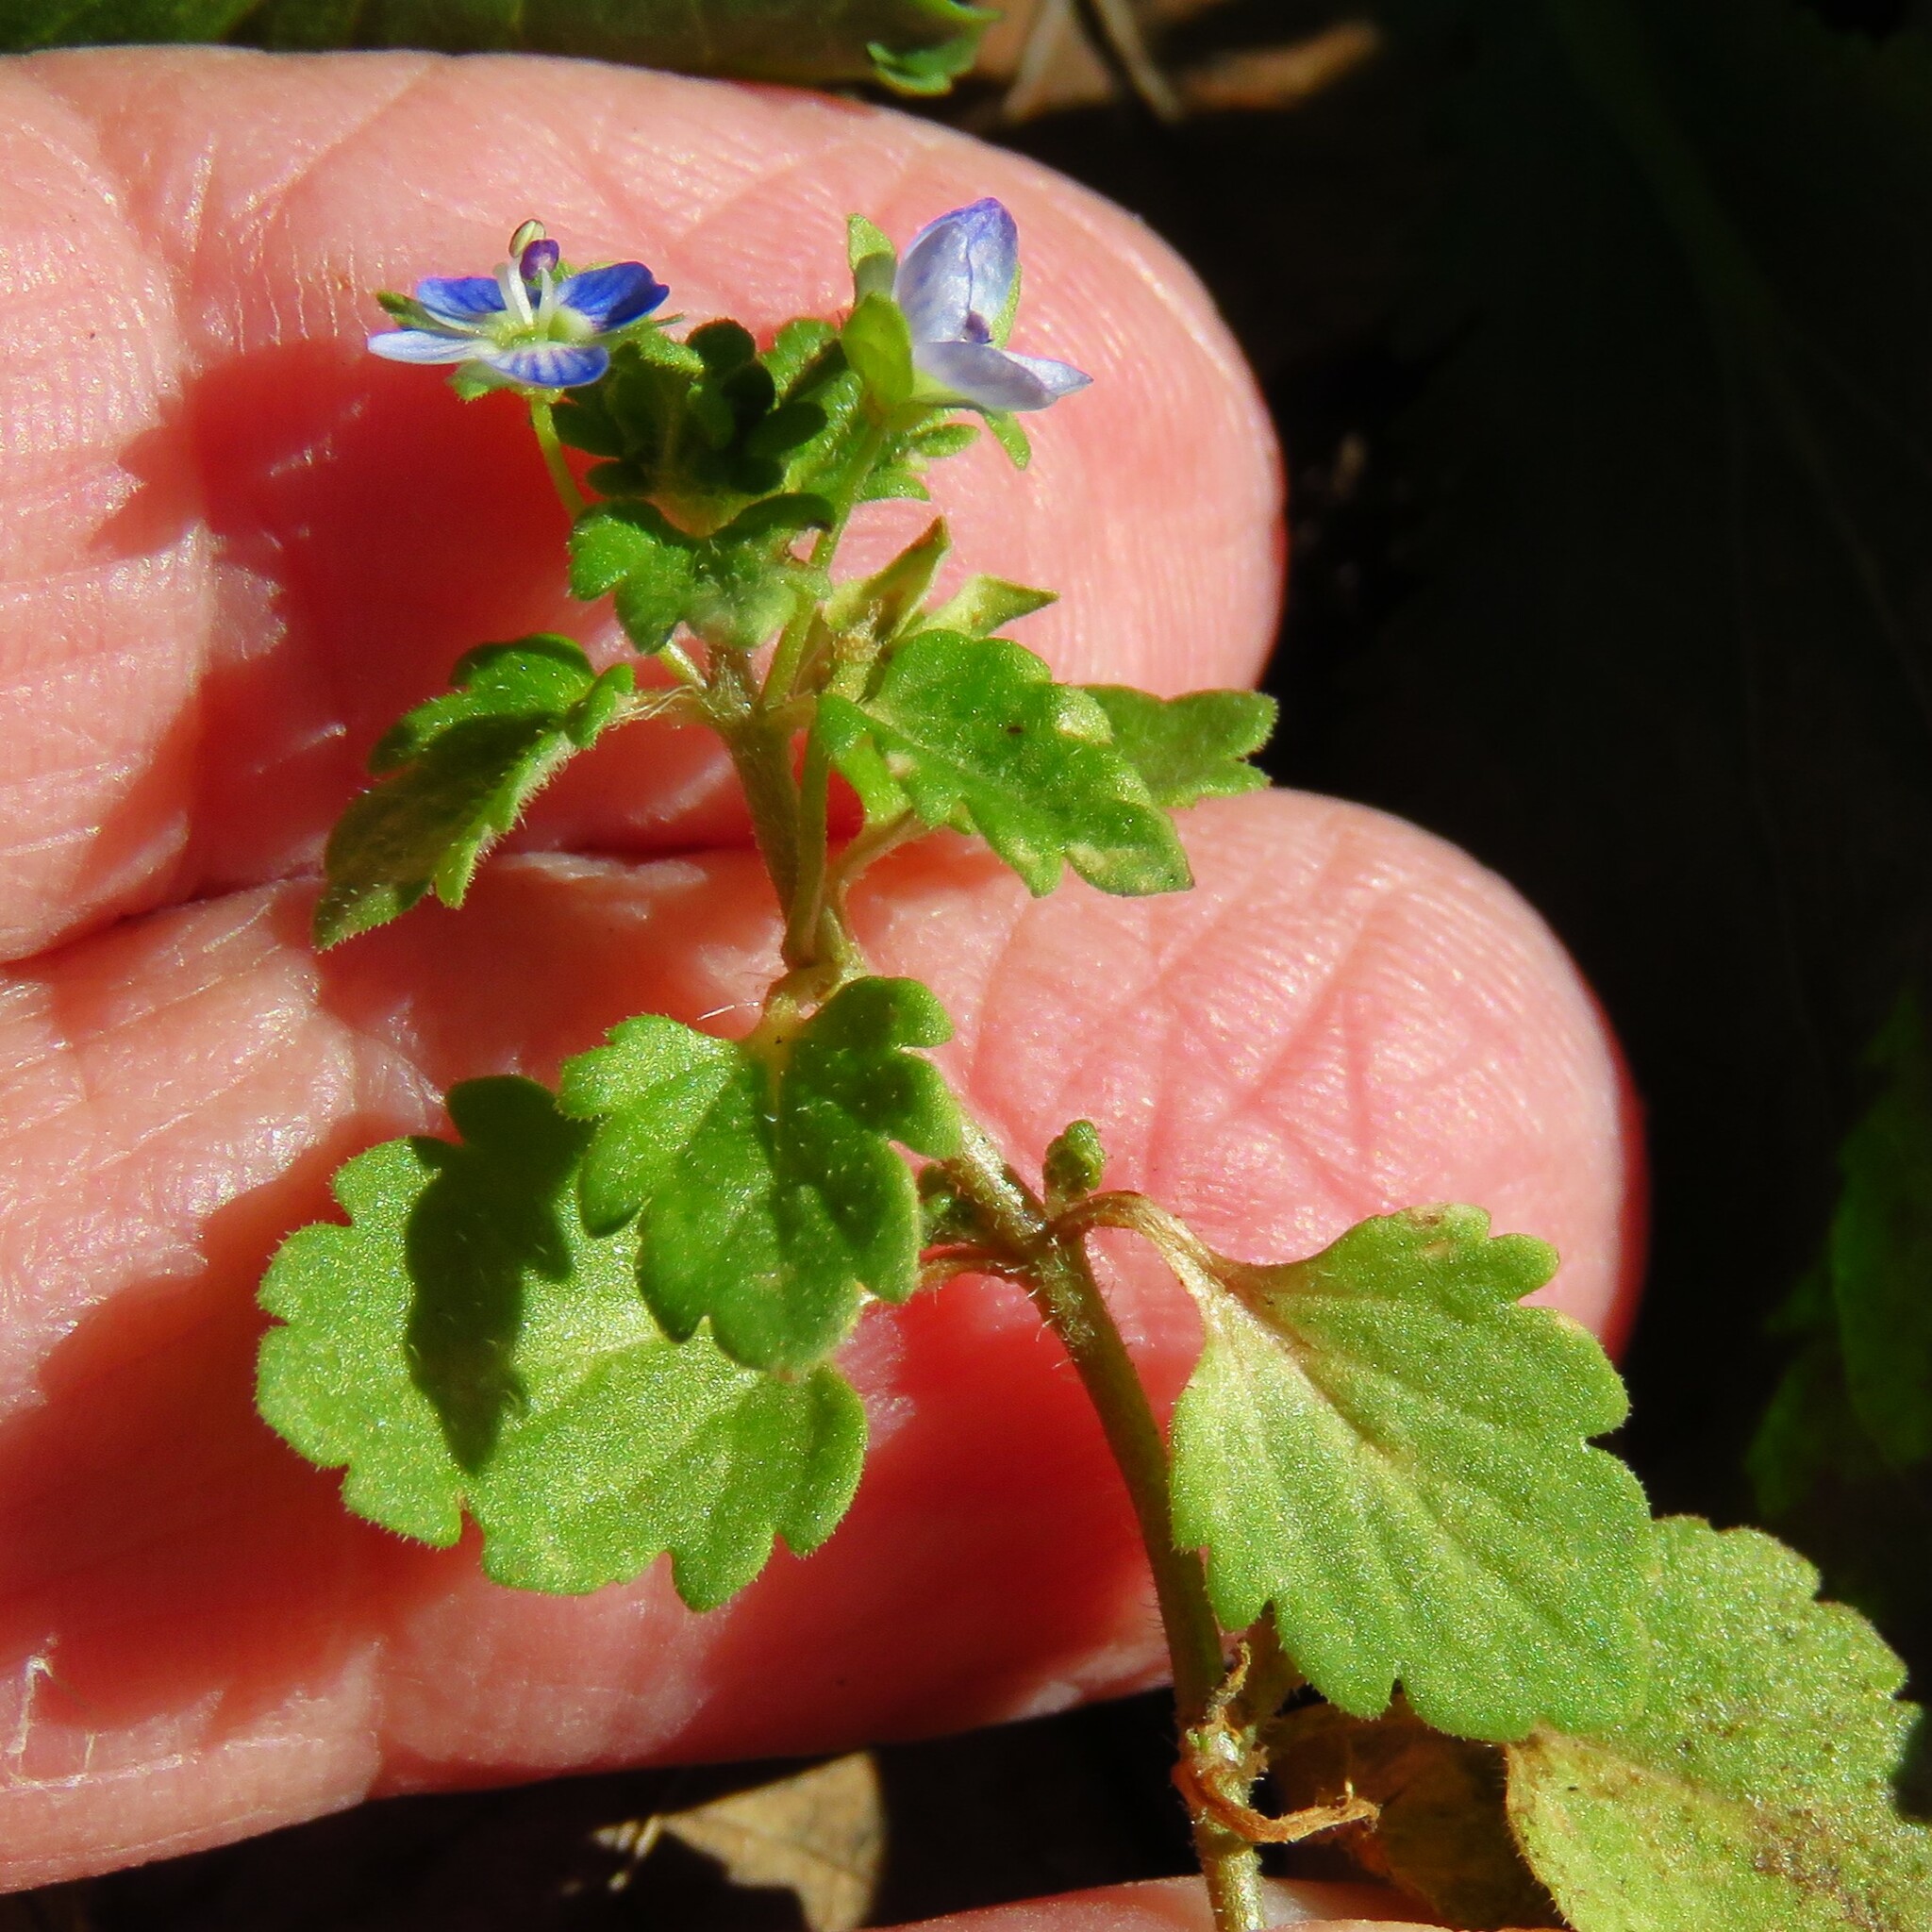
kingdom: Plantae
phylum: Tracheophyta
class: Magnoliopsida
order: Lamiales
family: Plantaginaceae
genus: Veronica
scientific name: Veronica polita
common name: Grey field-speedwell
